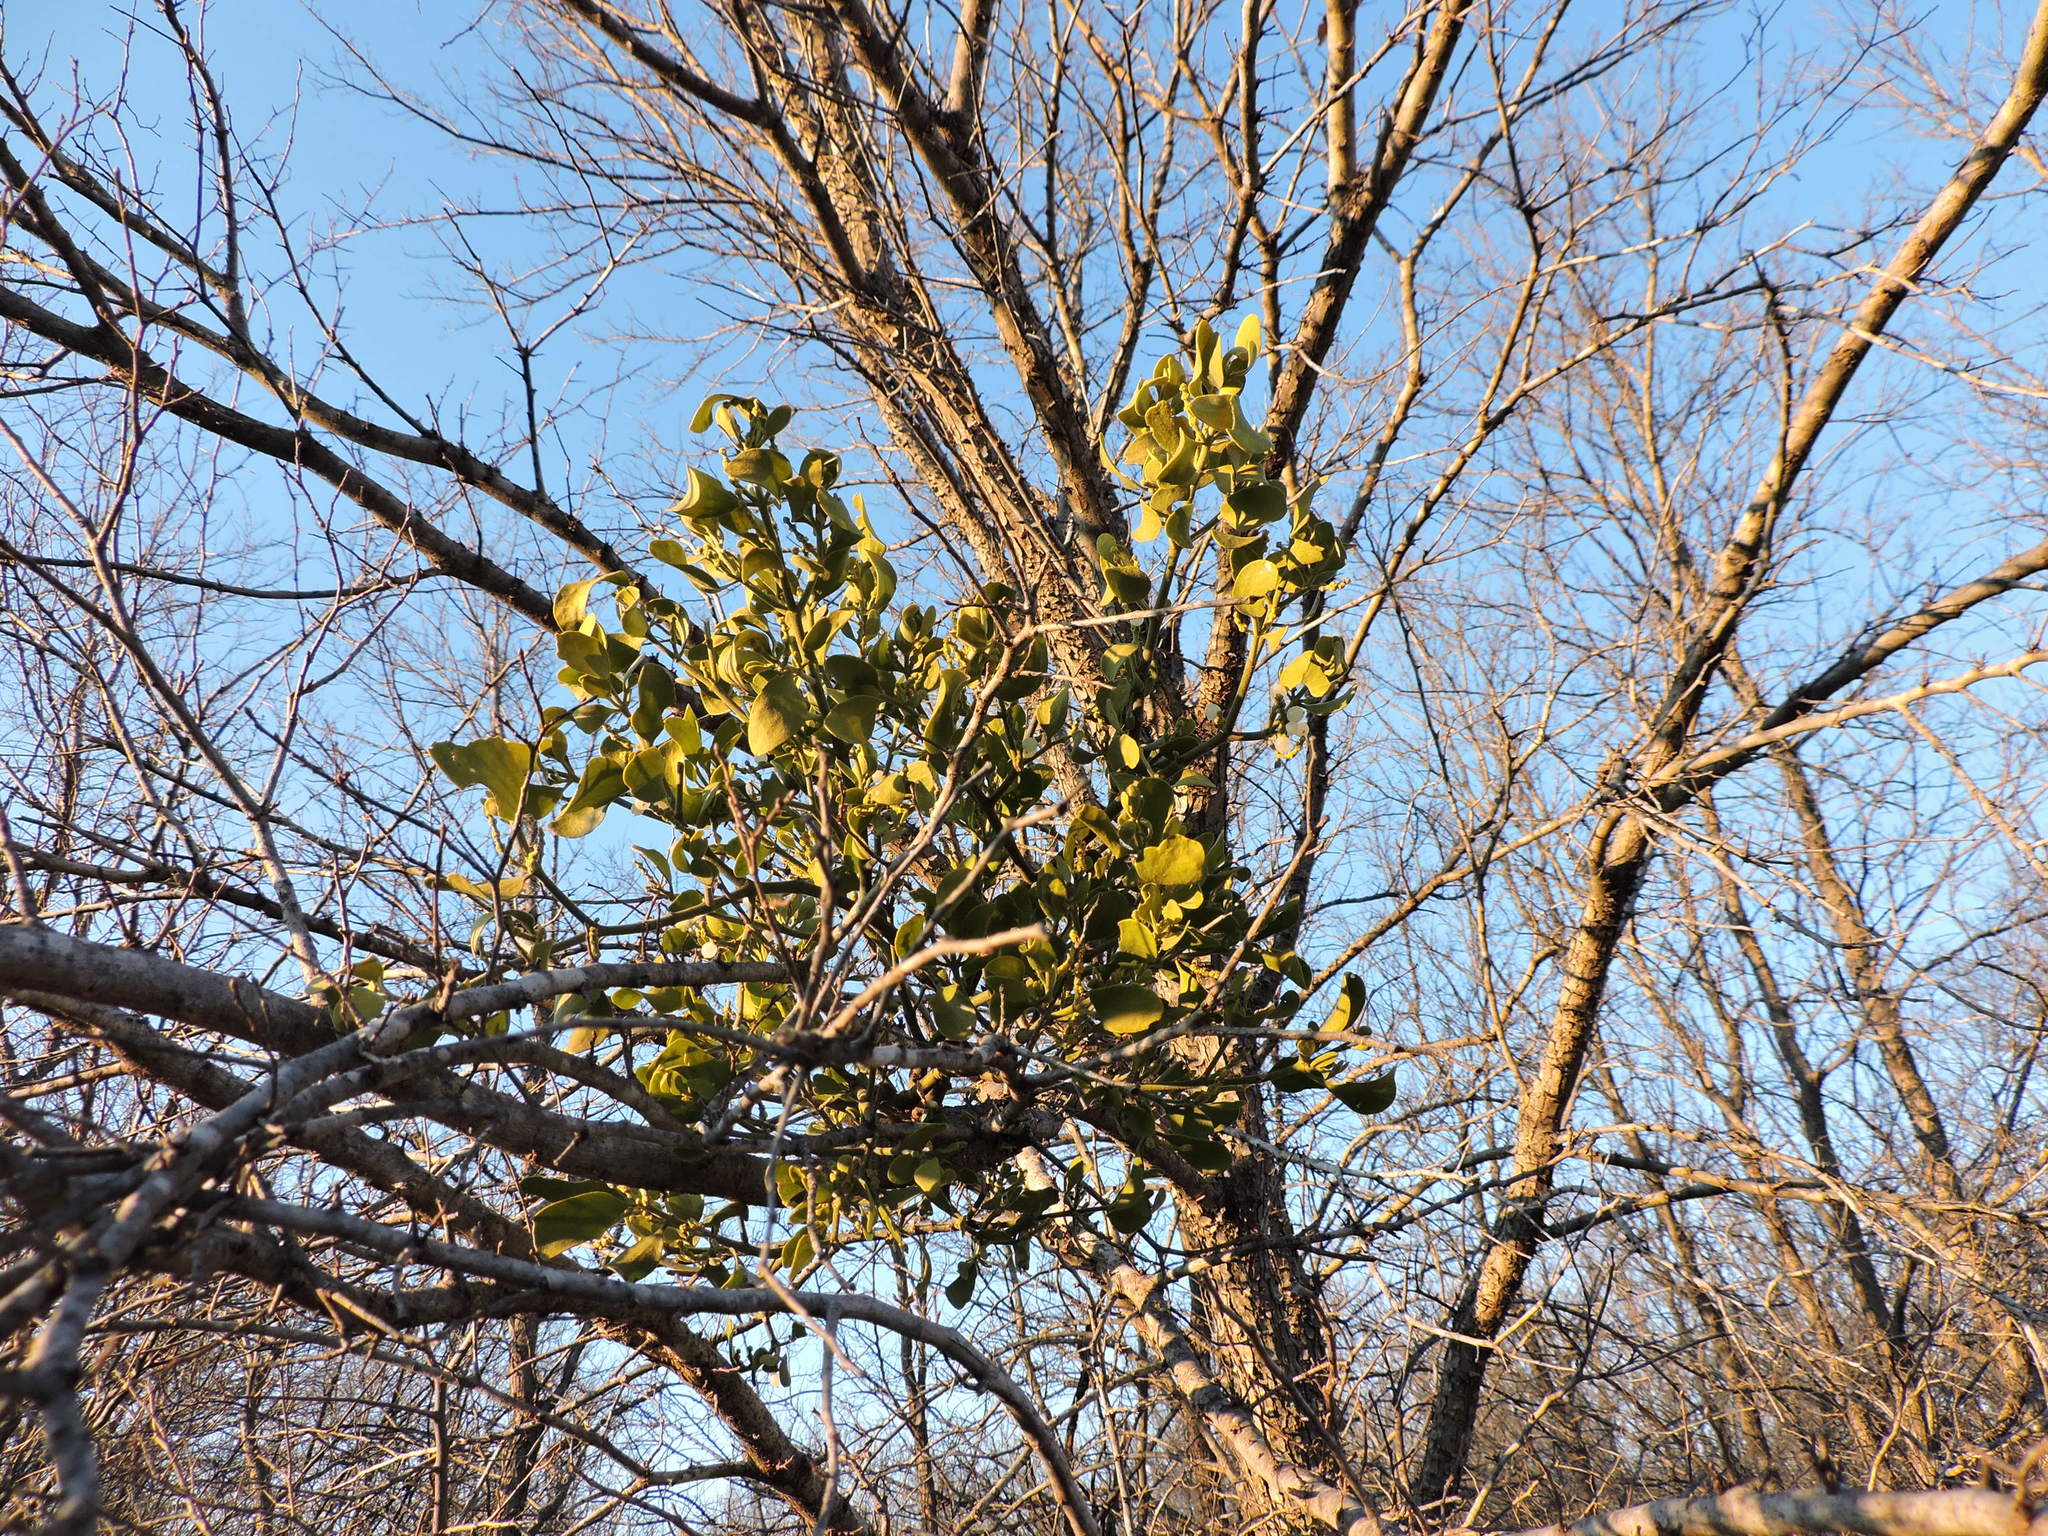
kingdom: Plantae
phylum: Tracheophyta
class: Magnoliopsida
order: Santalales
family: Viscaceae
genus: Phoradendron
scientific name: Phoradendron leucarpum
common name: Pacific mistletoe
